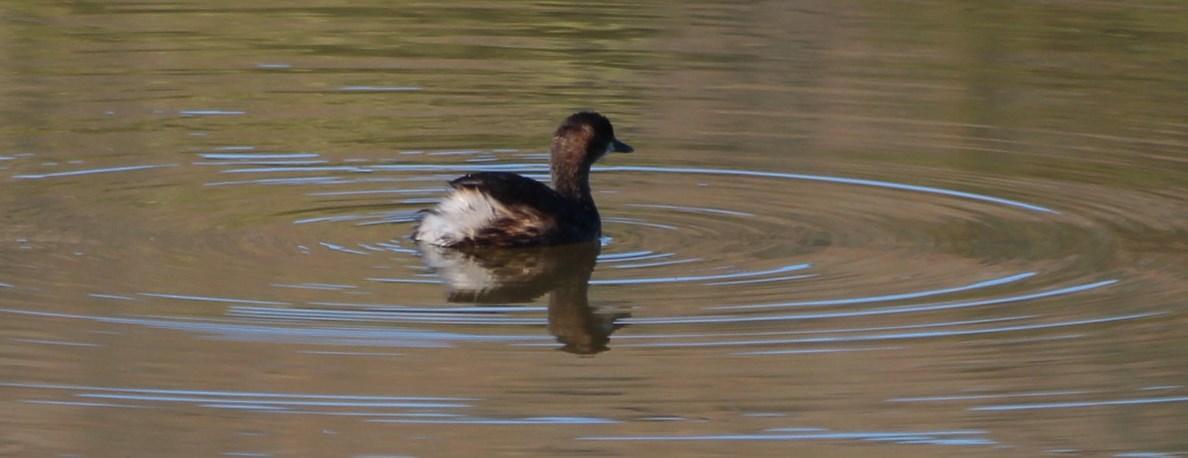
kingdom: Animalia
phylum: Chordata
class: Aves
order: Podicipediformes
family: Podicipedidae
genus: Tachybaptus
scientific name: Tachybaptus ruficollis
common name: Little grebe
